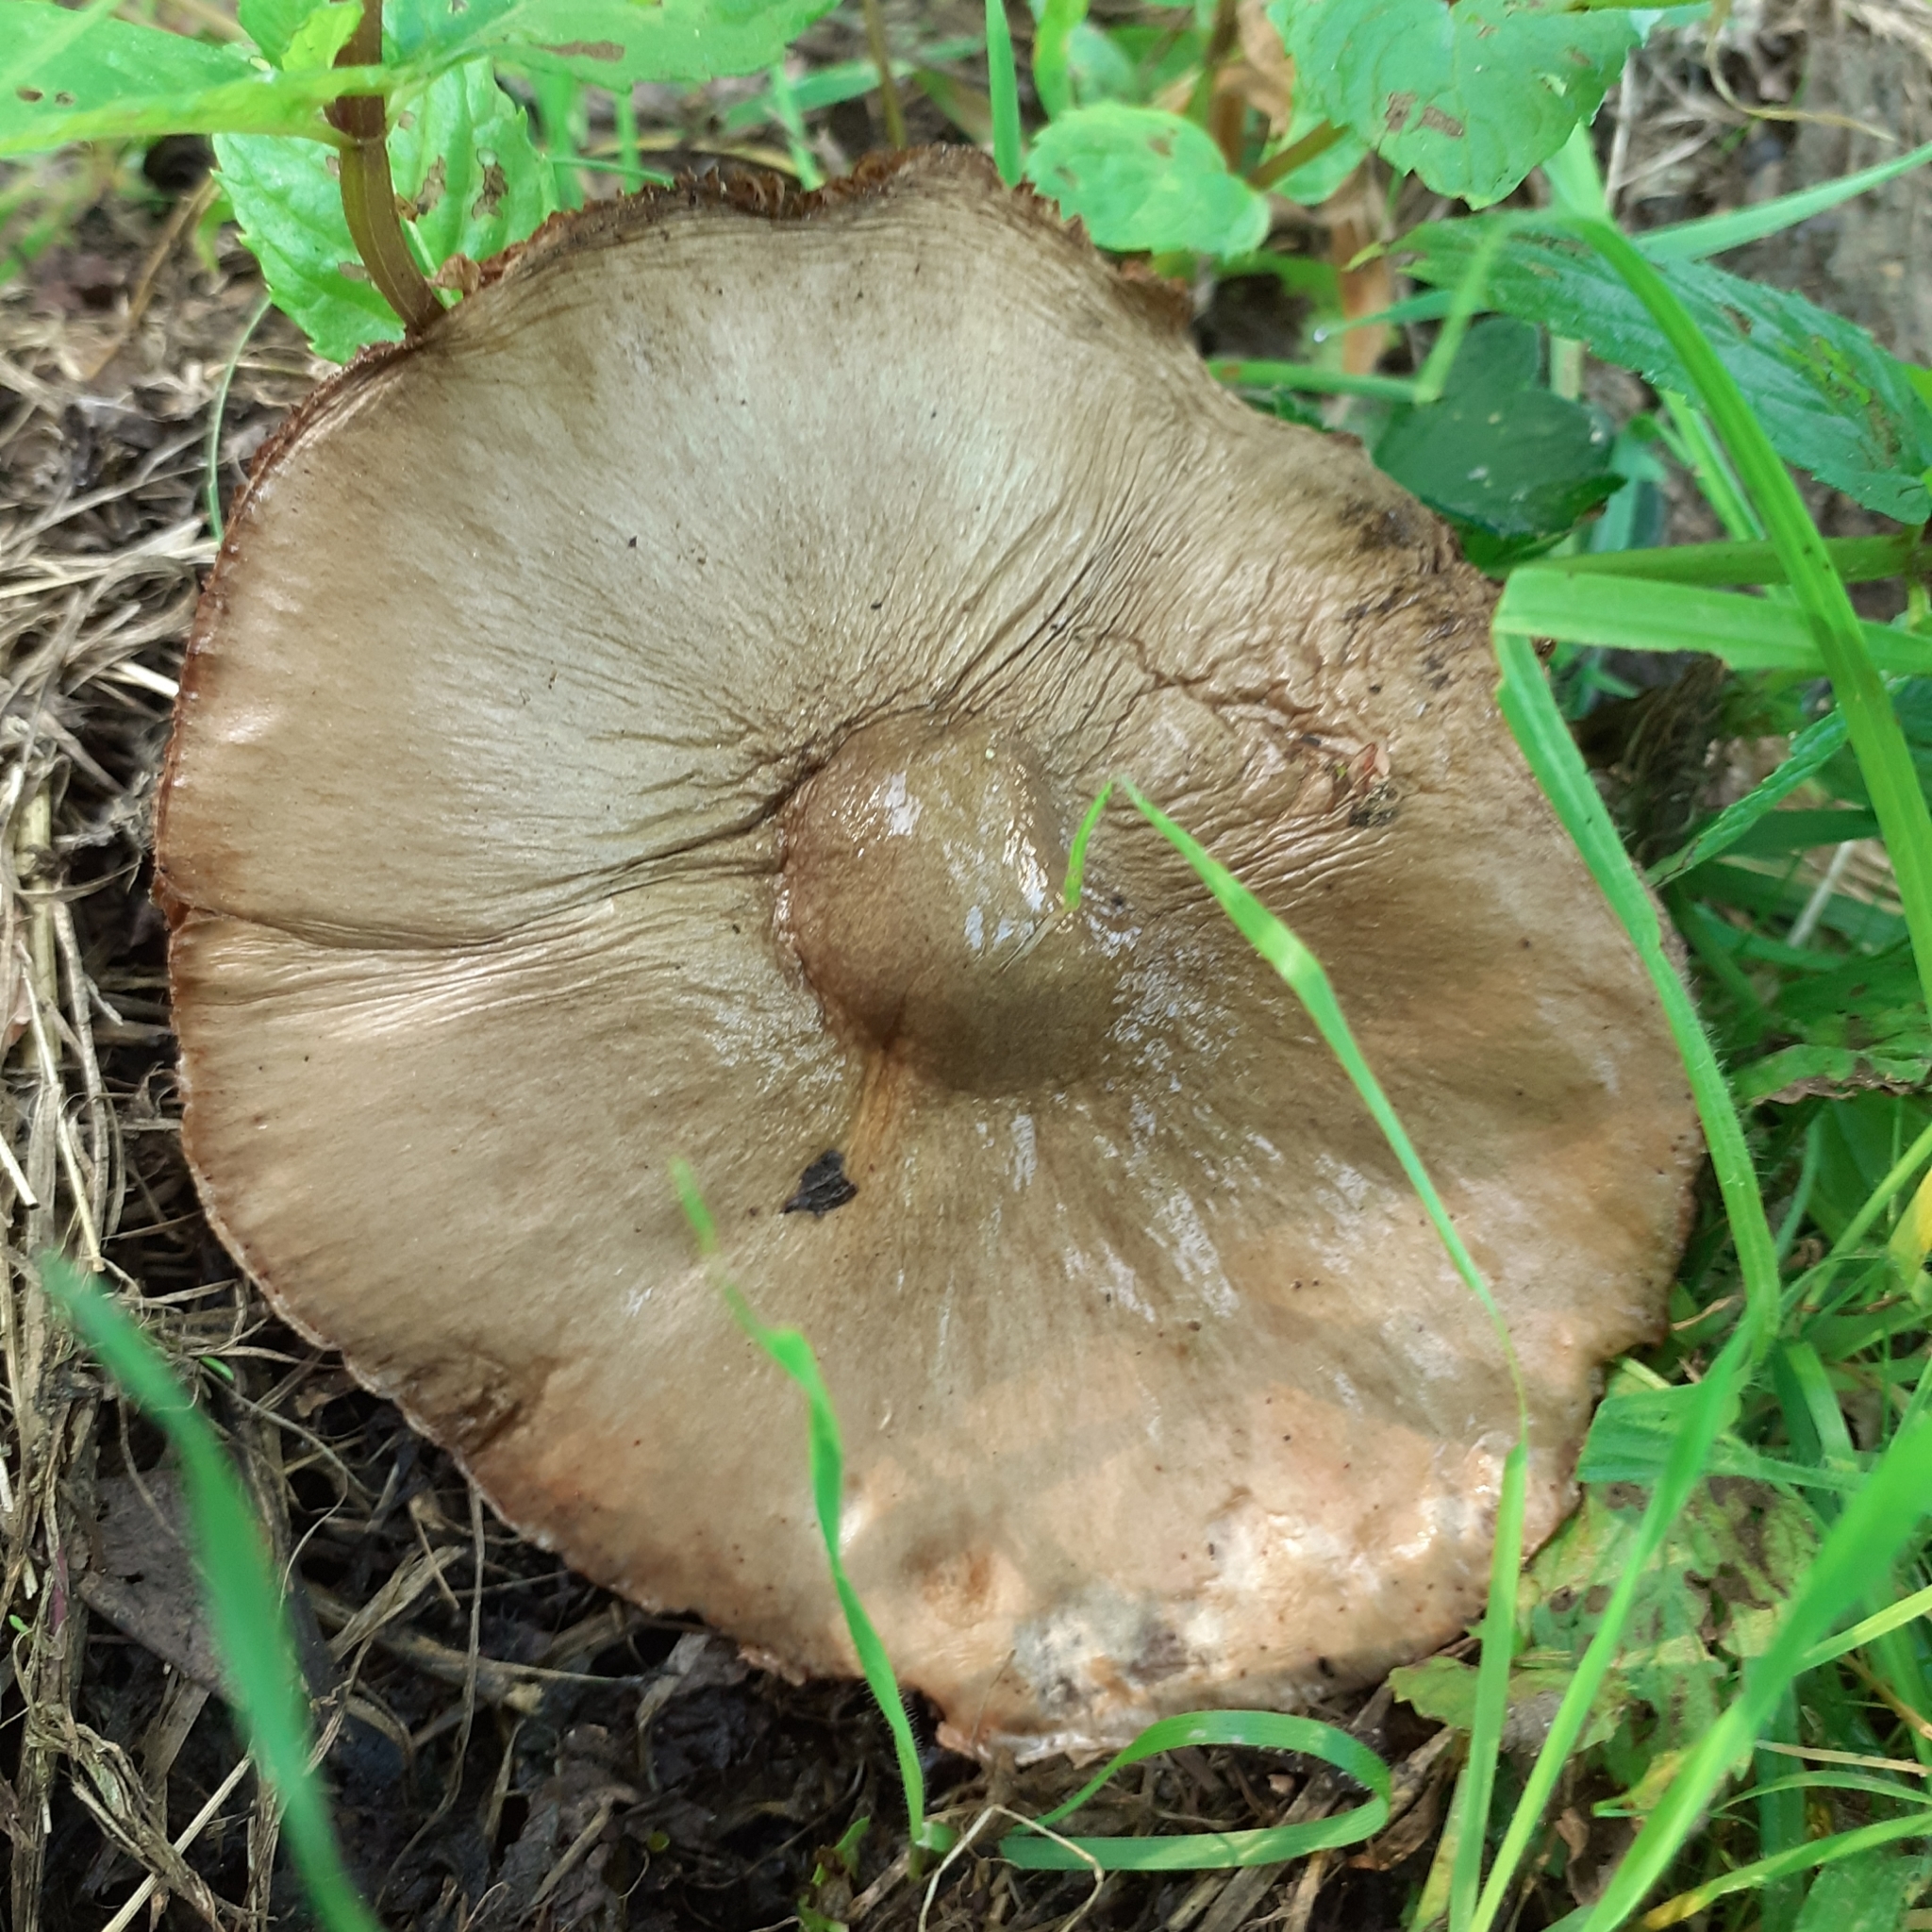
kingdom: Fungi
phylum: Basidiomycota
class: Agaricomycetes
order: Agaricales
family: Pluteaceae
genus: Volvopluteus
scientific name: Volvopluteus gloiocephalus
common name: Stubble rosegill
